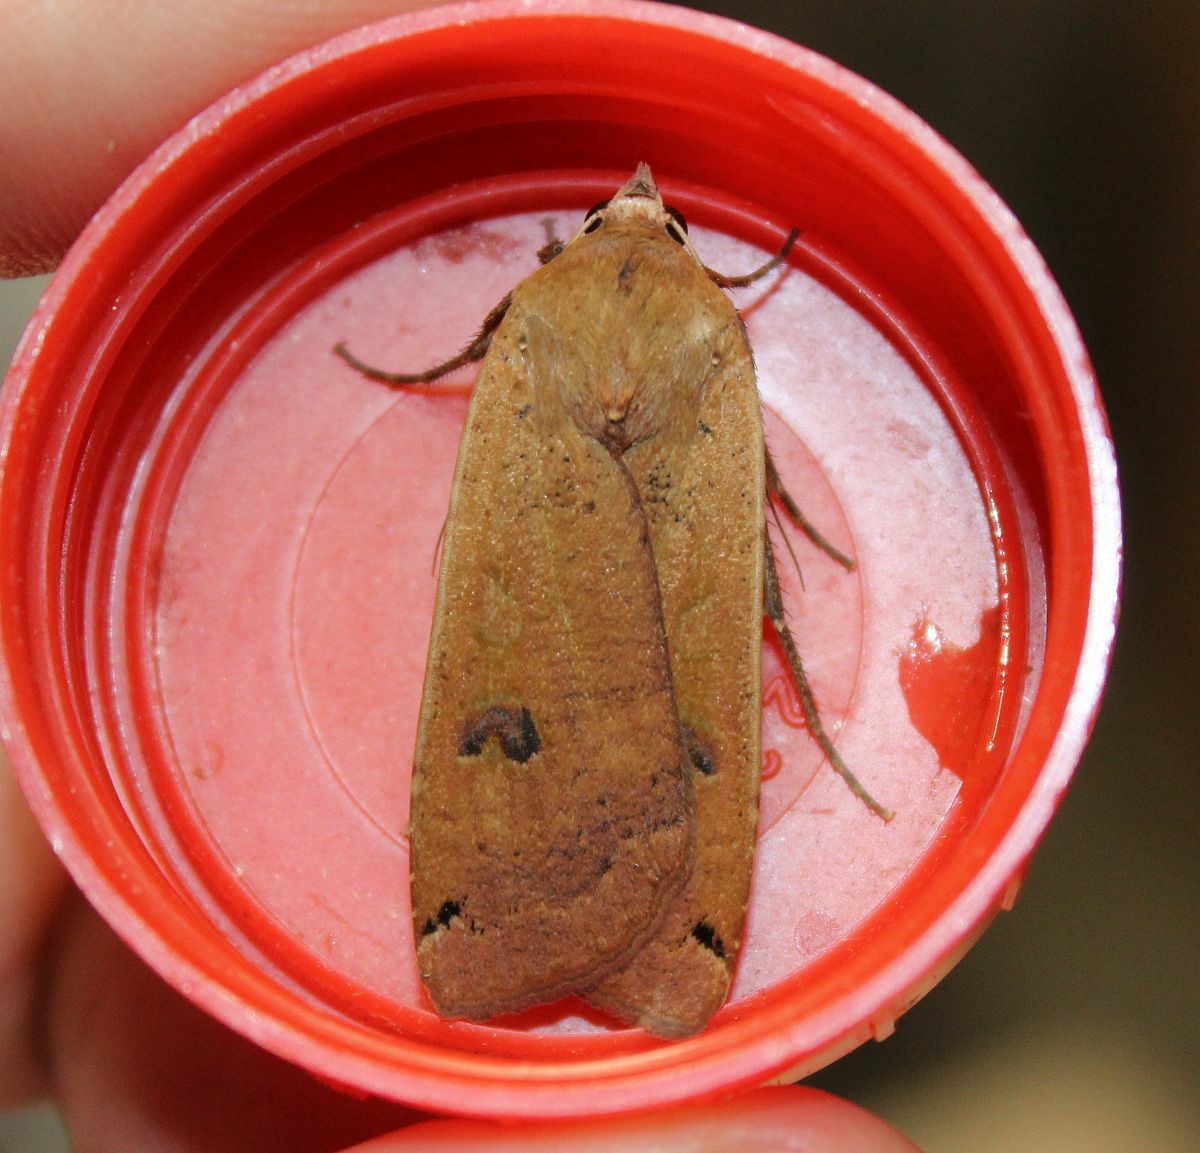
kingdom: Animalia
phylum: Arthropoda
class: Insecta
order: Lepidoptera
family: Noctuidae
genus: Noctua
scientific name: Noctua pronuba
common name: Large yellow underwing
